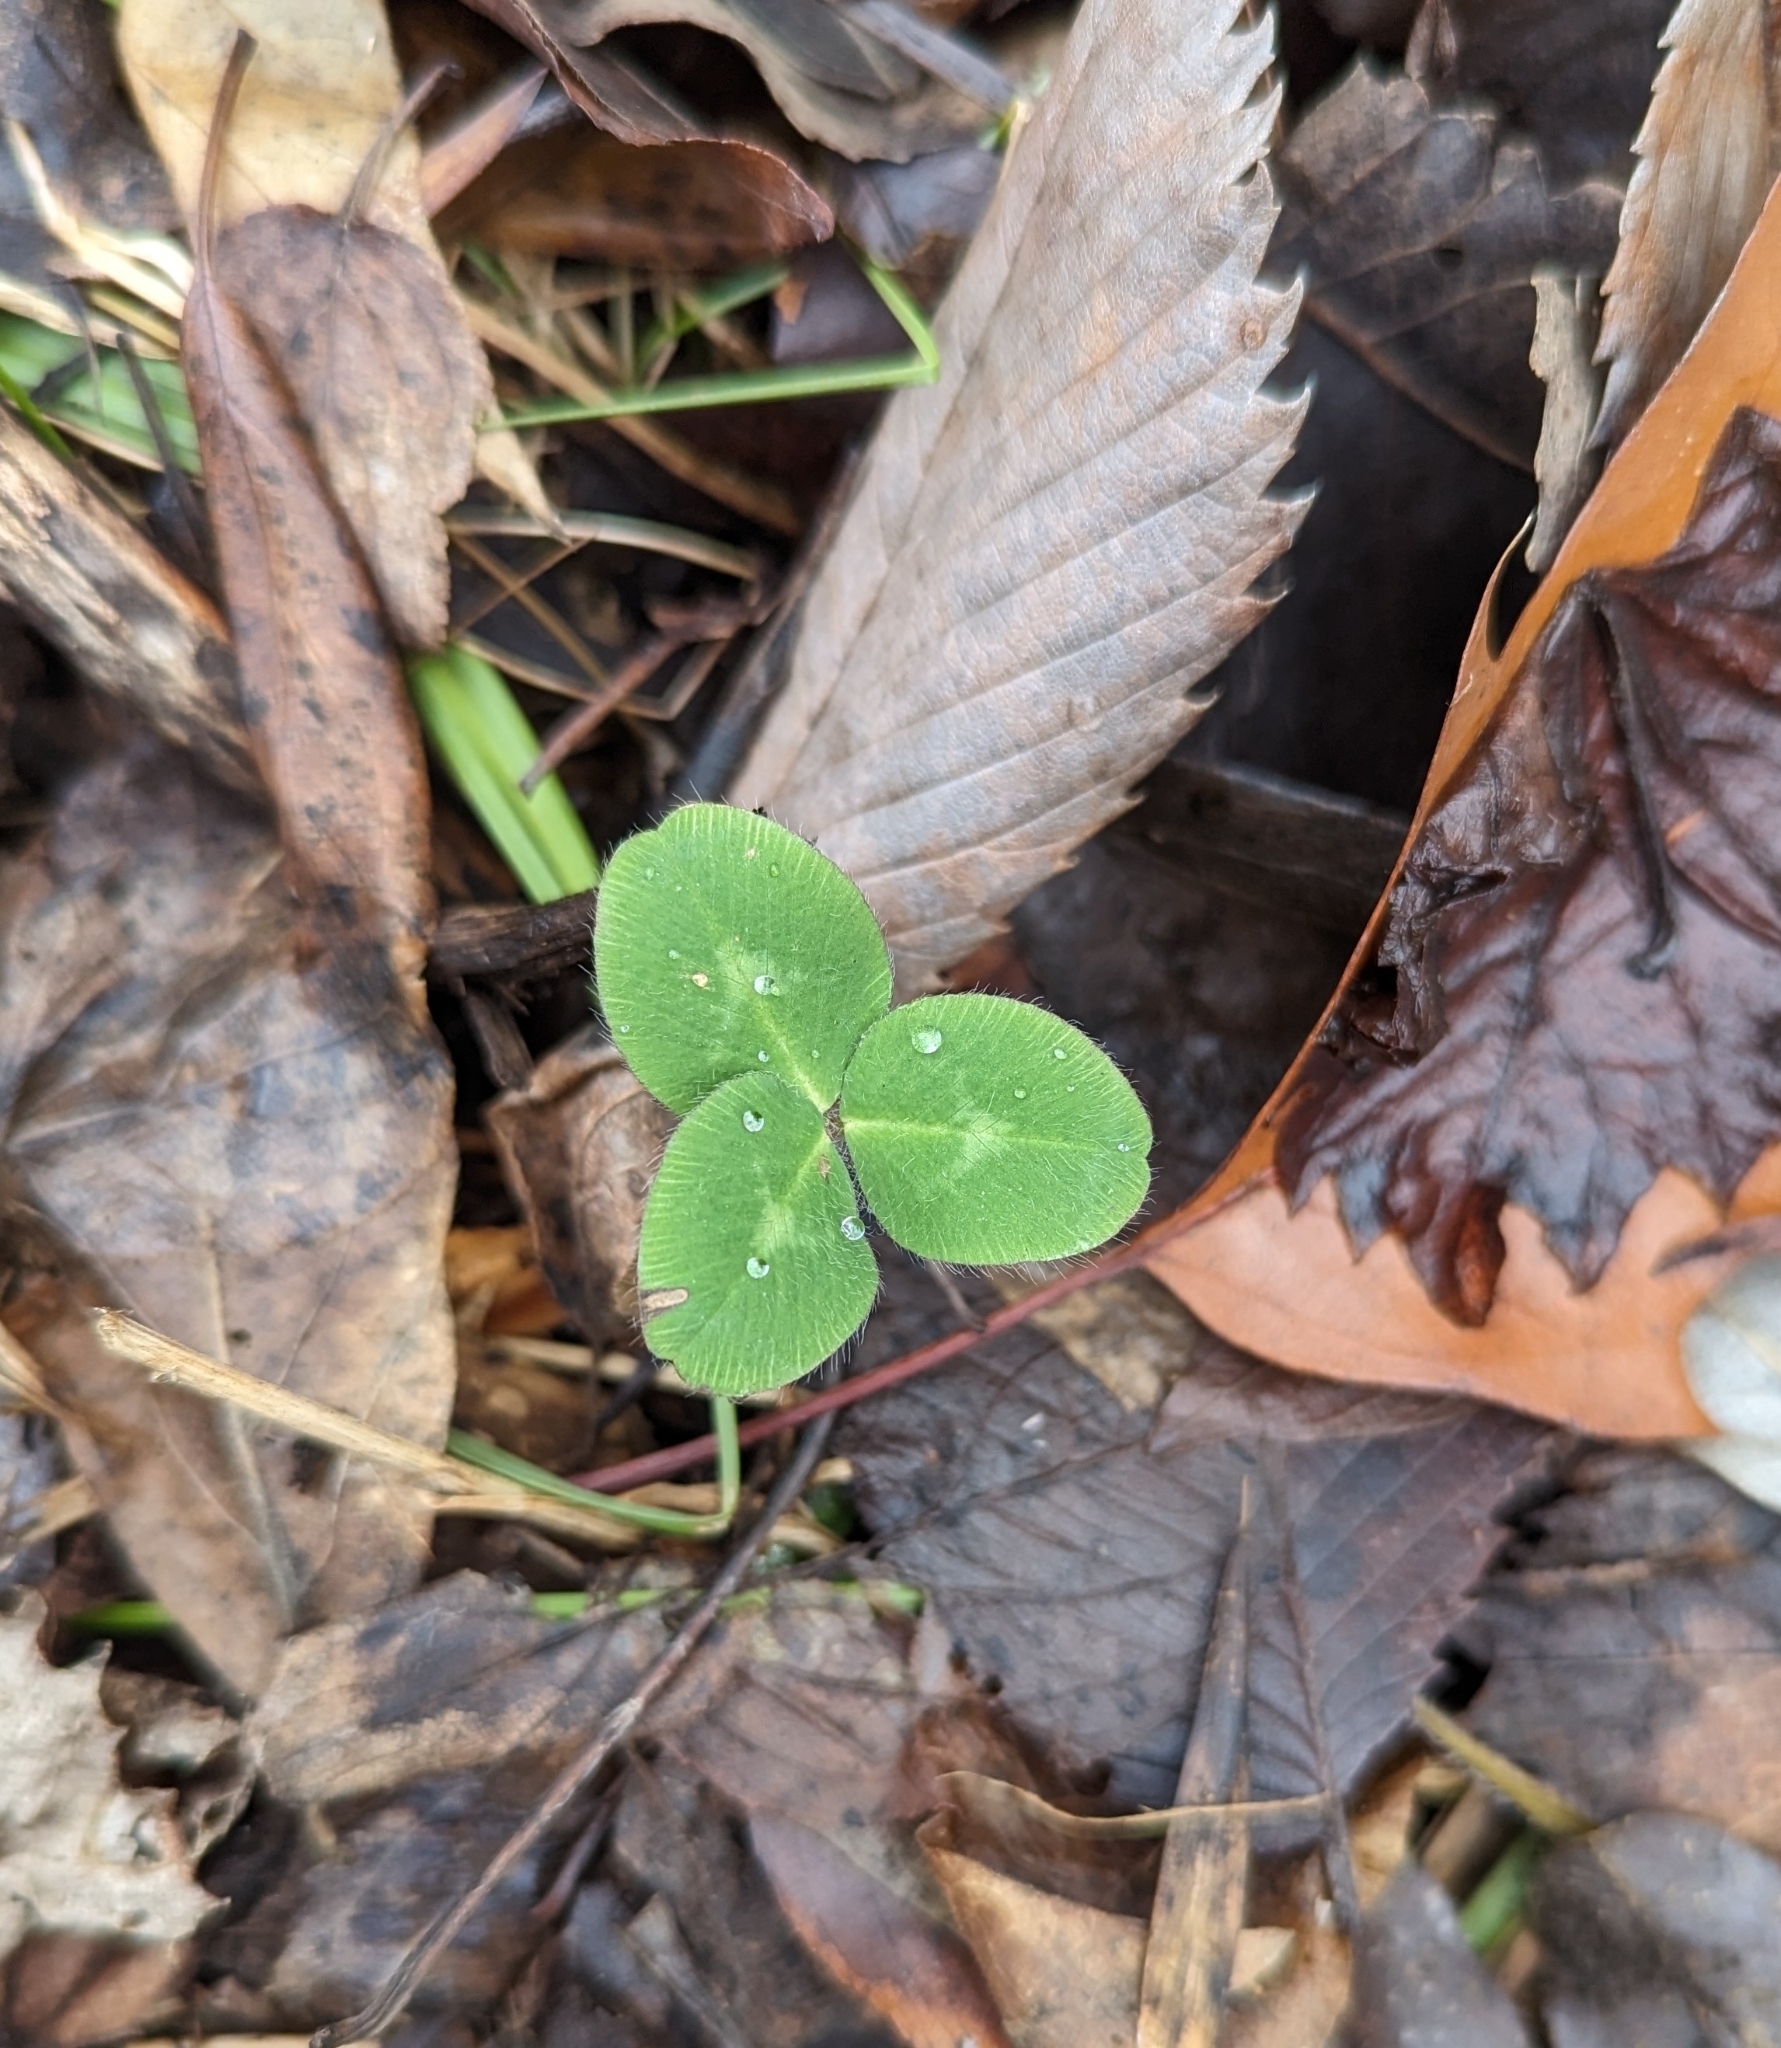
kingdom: Plantae
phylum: Tracheophyta
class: Magnoliopsida
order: Fabales
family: Fabaceae
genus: Trifolium
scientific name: Trifolium pratense
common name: Red clover
